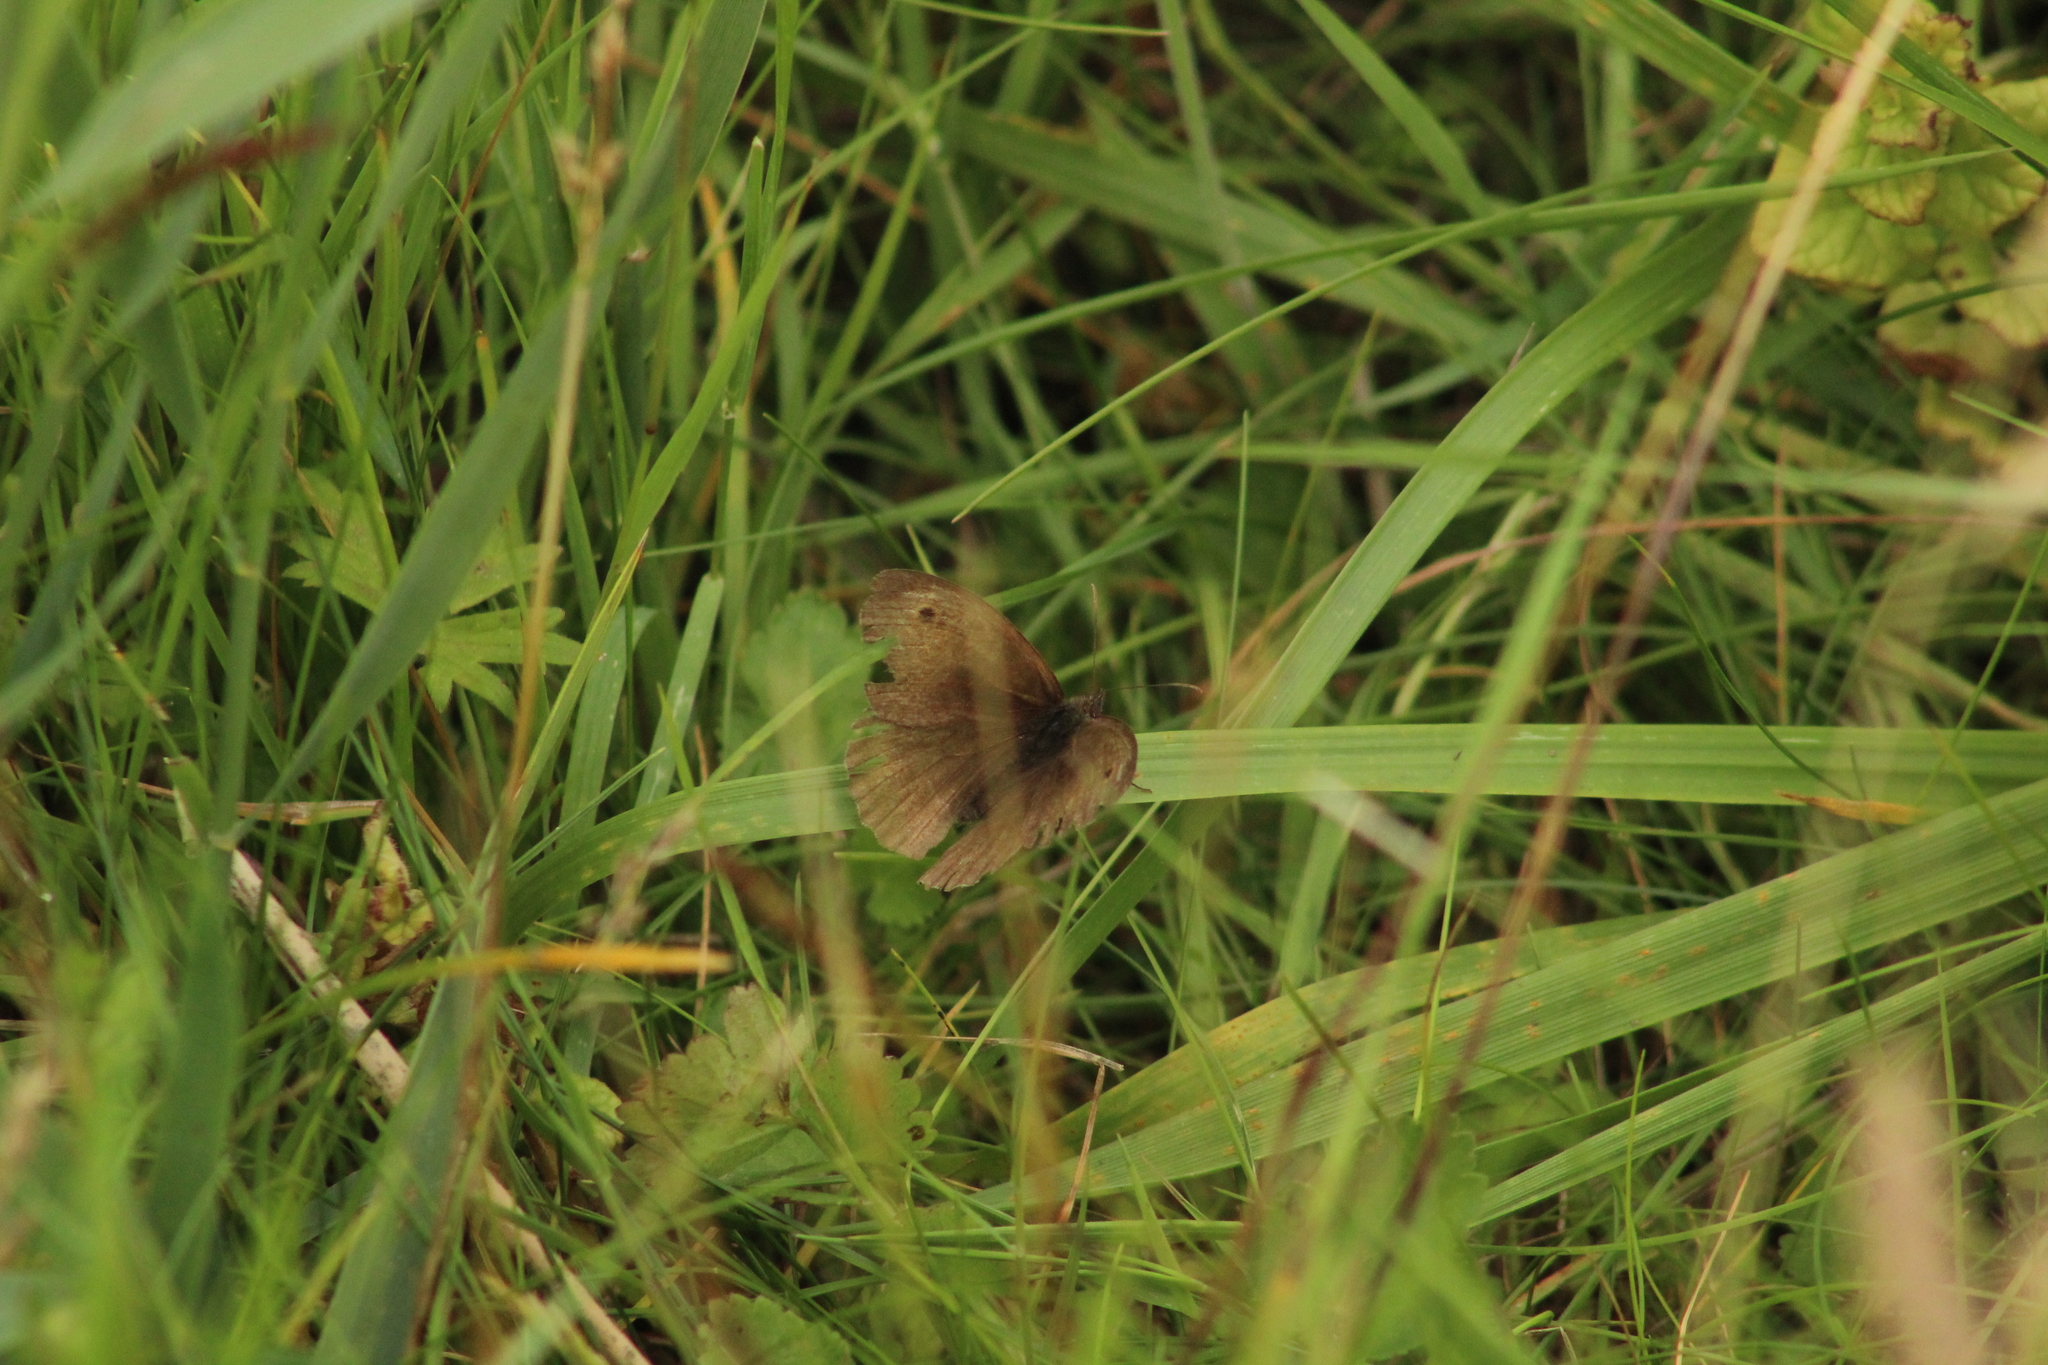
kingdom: Animalia
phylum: Arthropoda
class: Insecta
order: Lepidoptera
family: Nymphalidae
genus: Maniola
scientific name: Maniola jurtina
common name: Meadow brown
